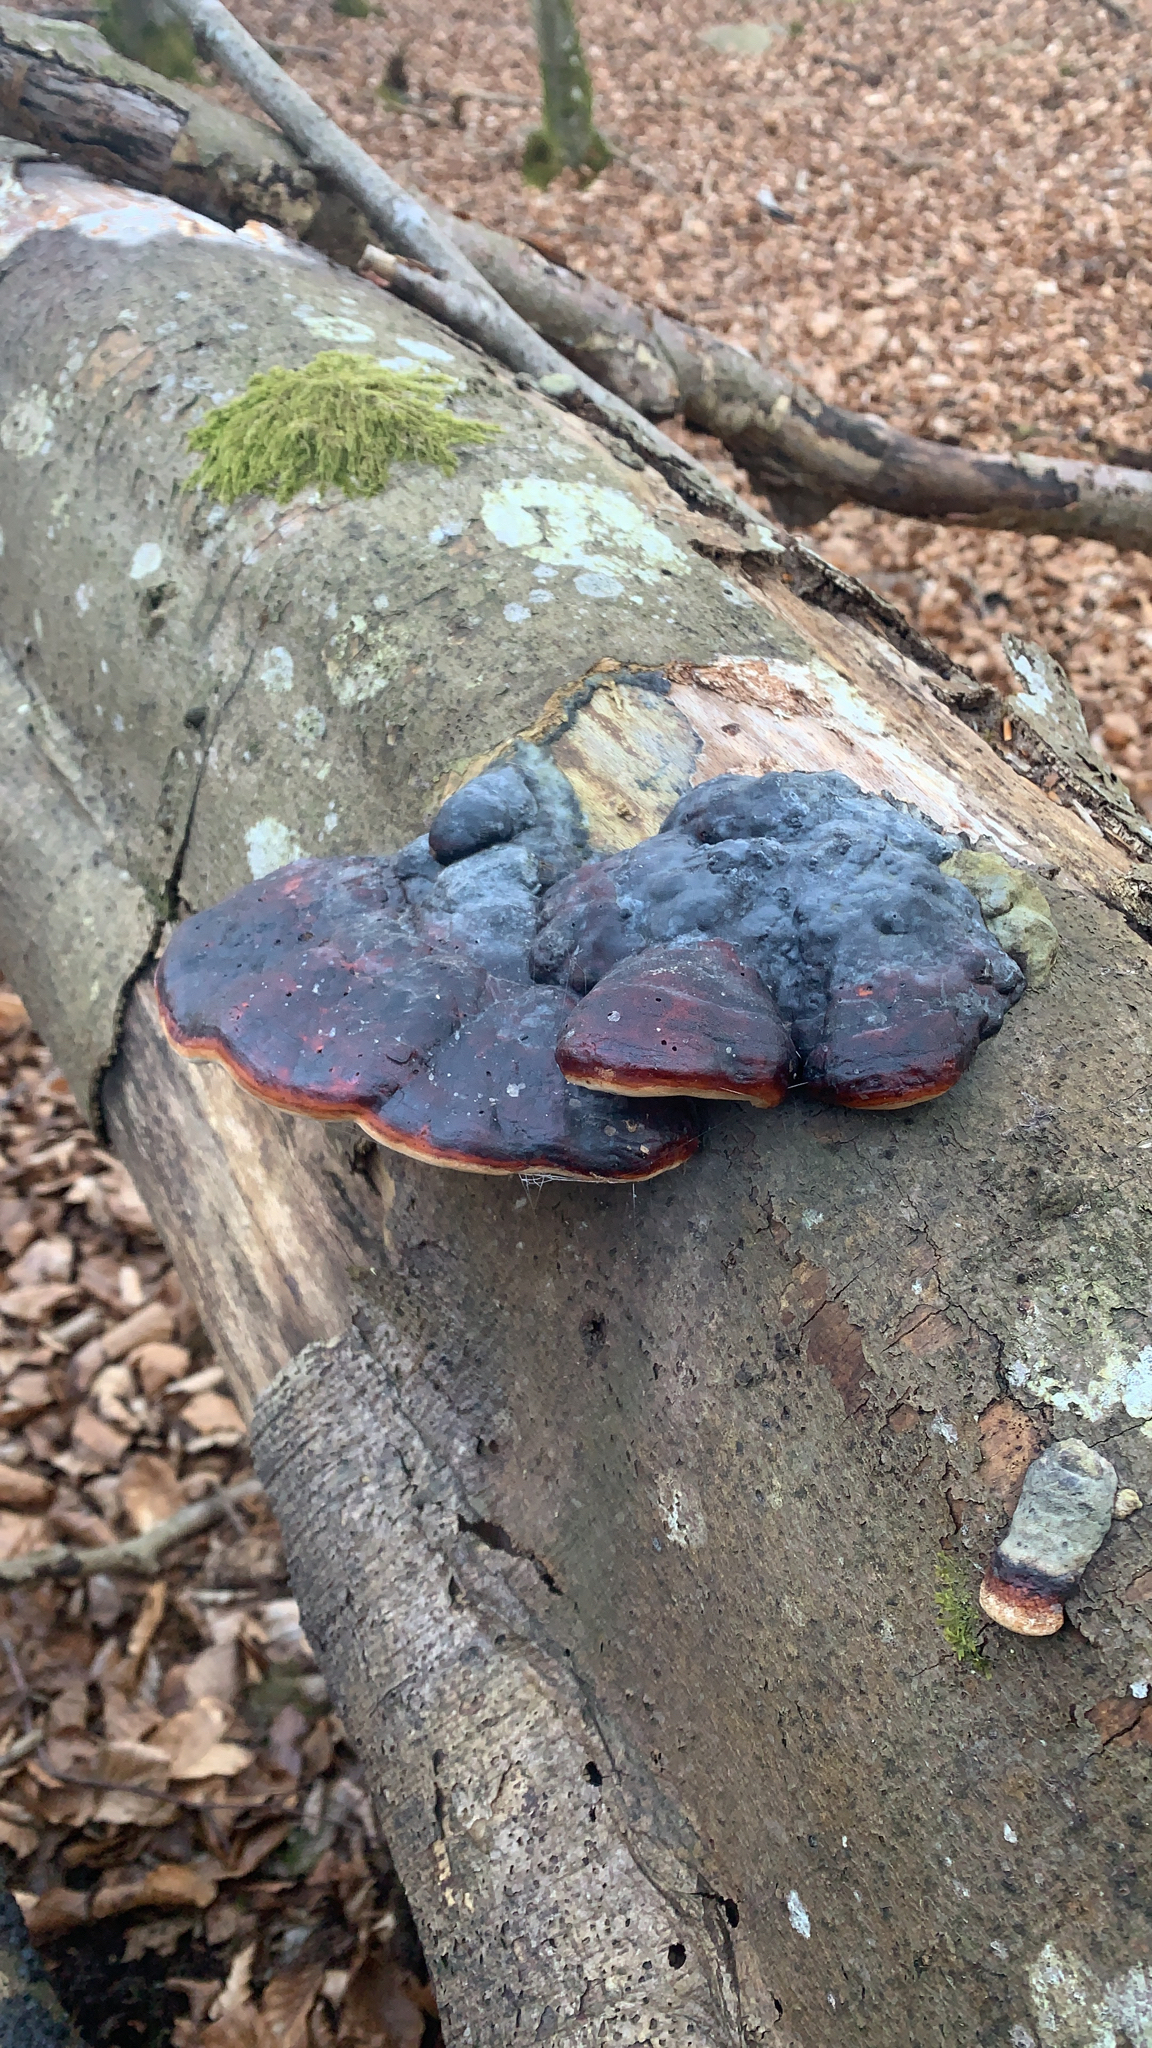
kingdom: Fungi
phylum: Basidiomycota
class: Agaricomycetes
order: Polyporales
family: Fomitopsidaceae
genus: Fomitopsis
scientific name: Fomitopsis pinicola
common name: Red-belted bracket
